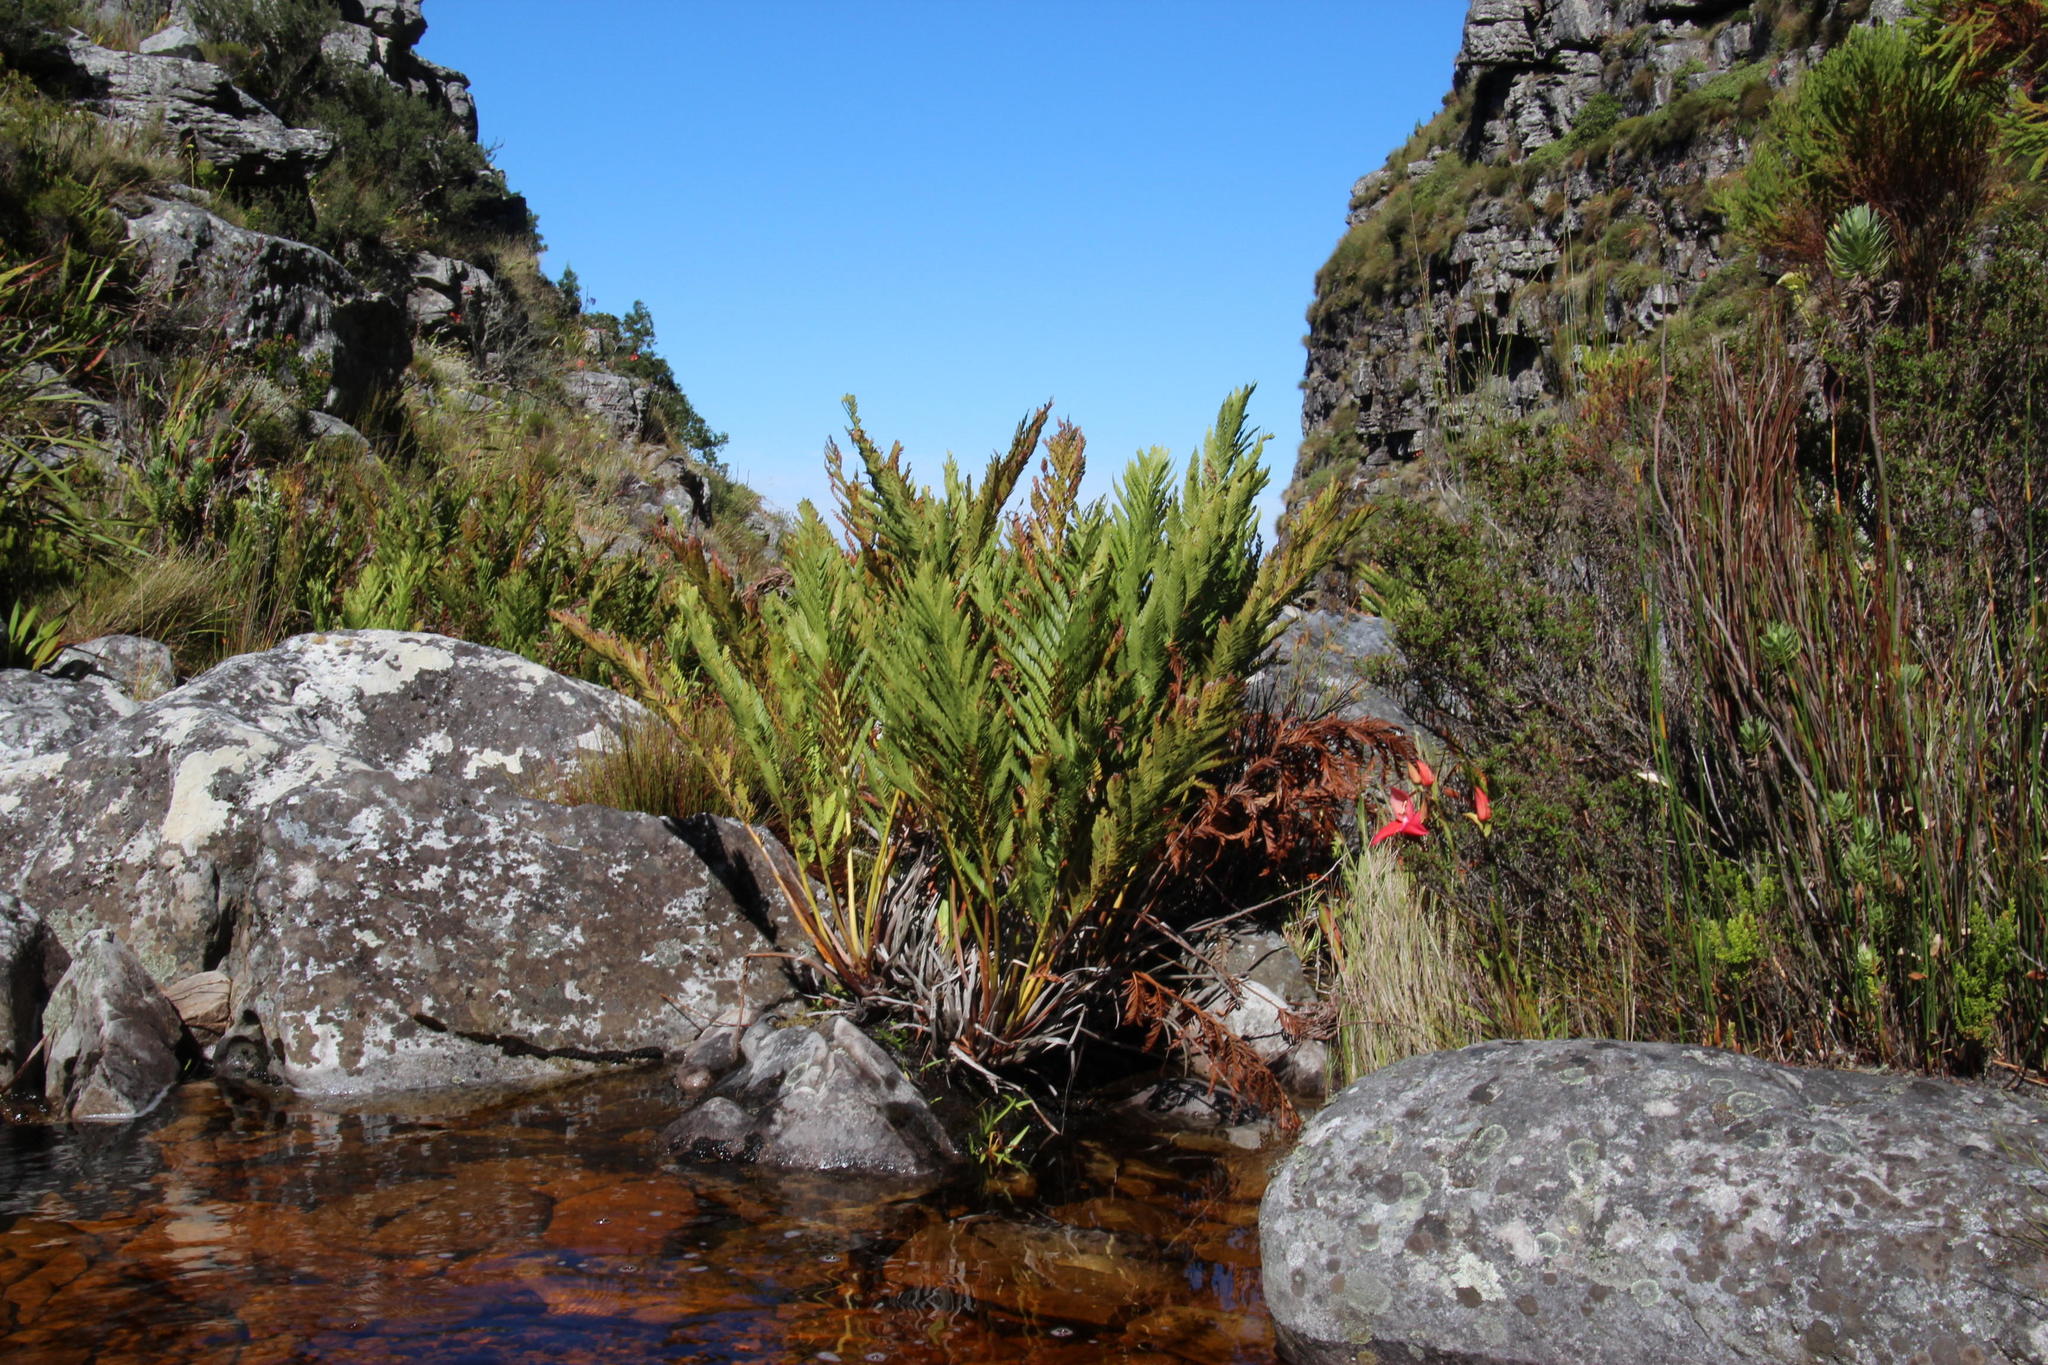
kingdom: Plantae
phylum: Tracheophyta
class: Polypodiopsida
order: Osmundales
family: Osmundaceae
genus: Todea
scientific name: Todea barbara
